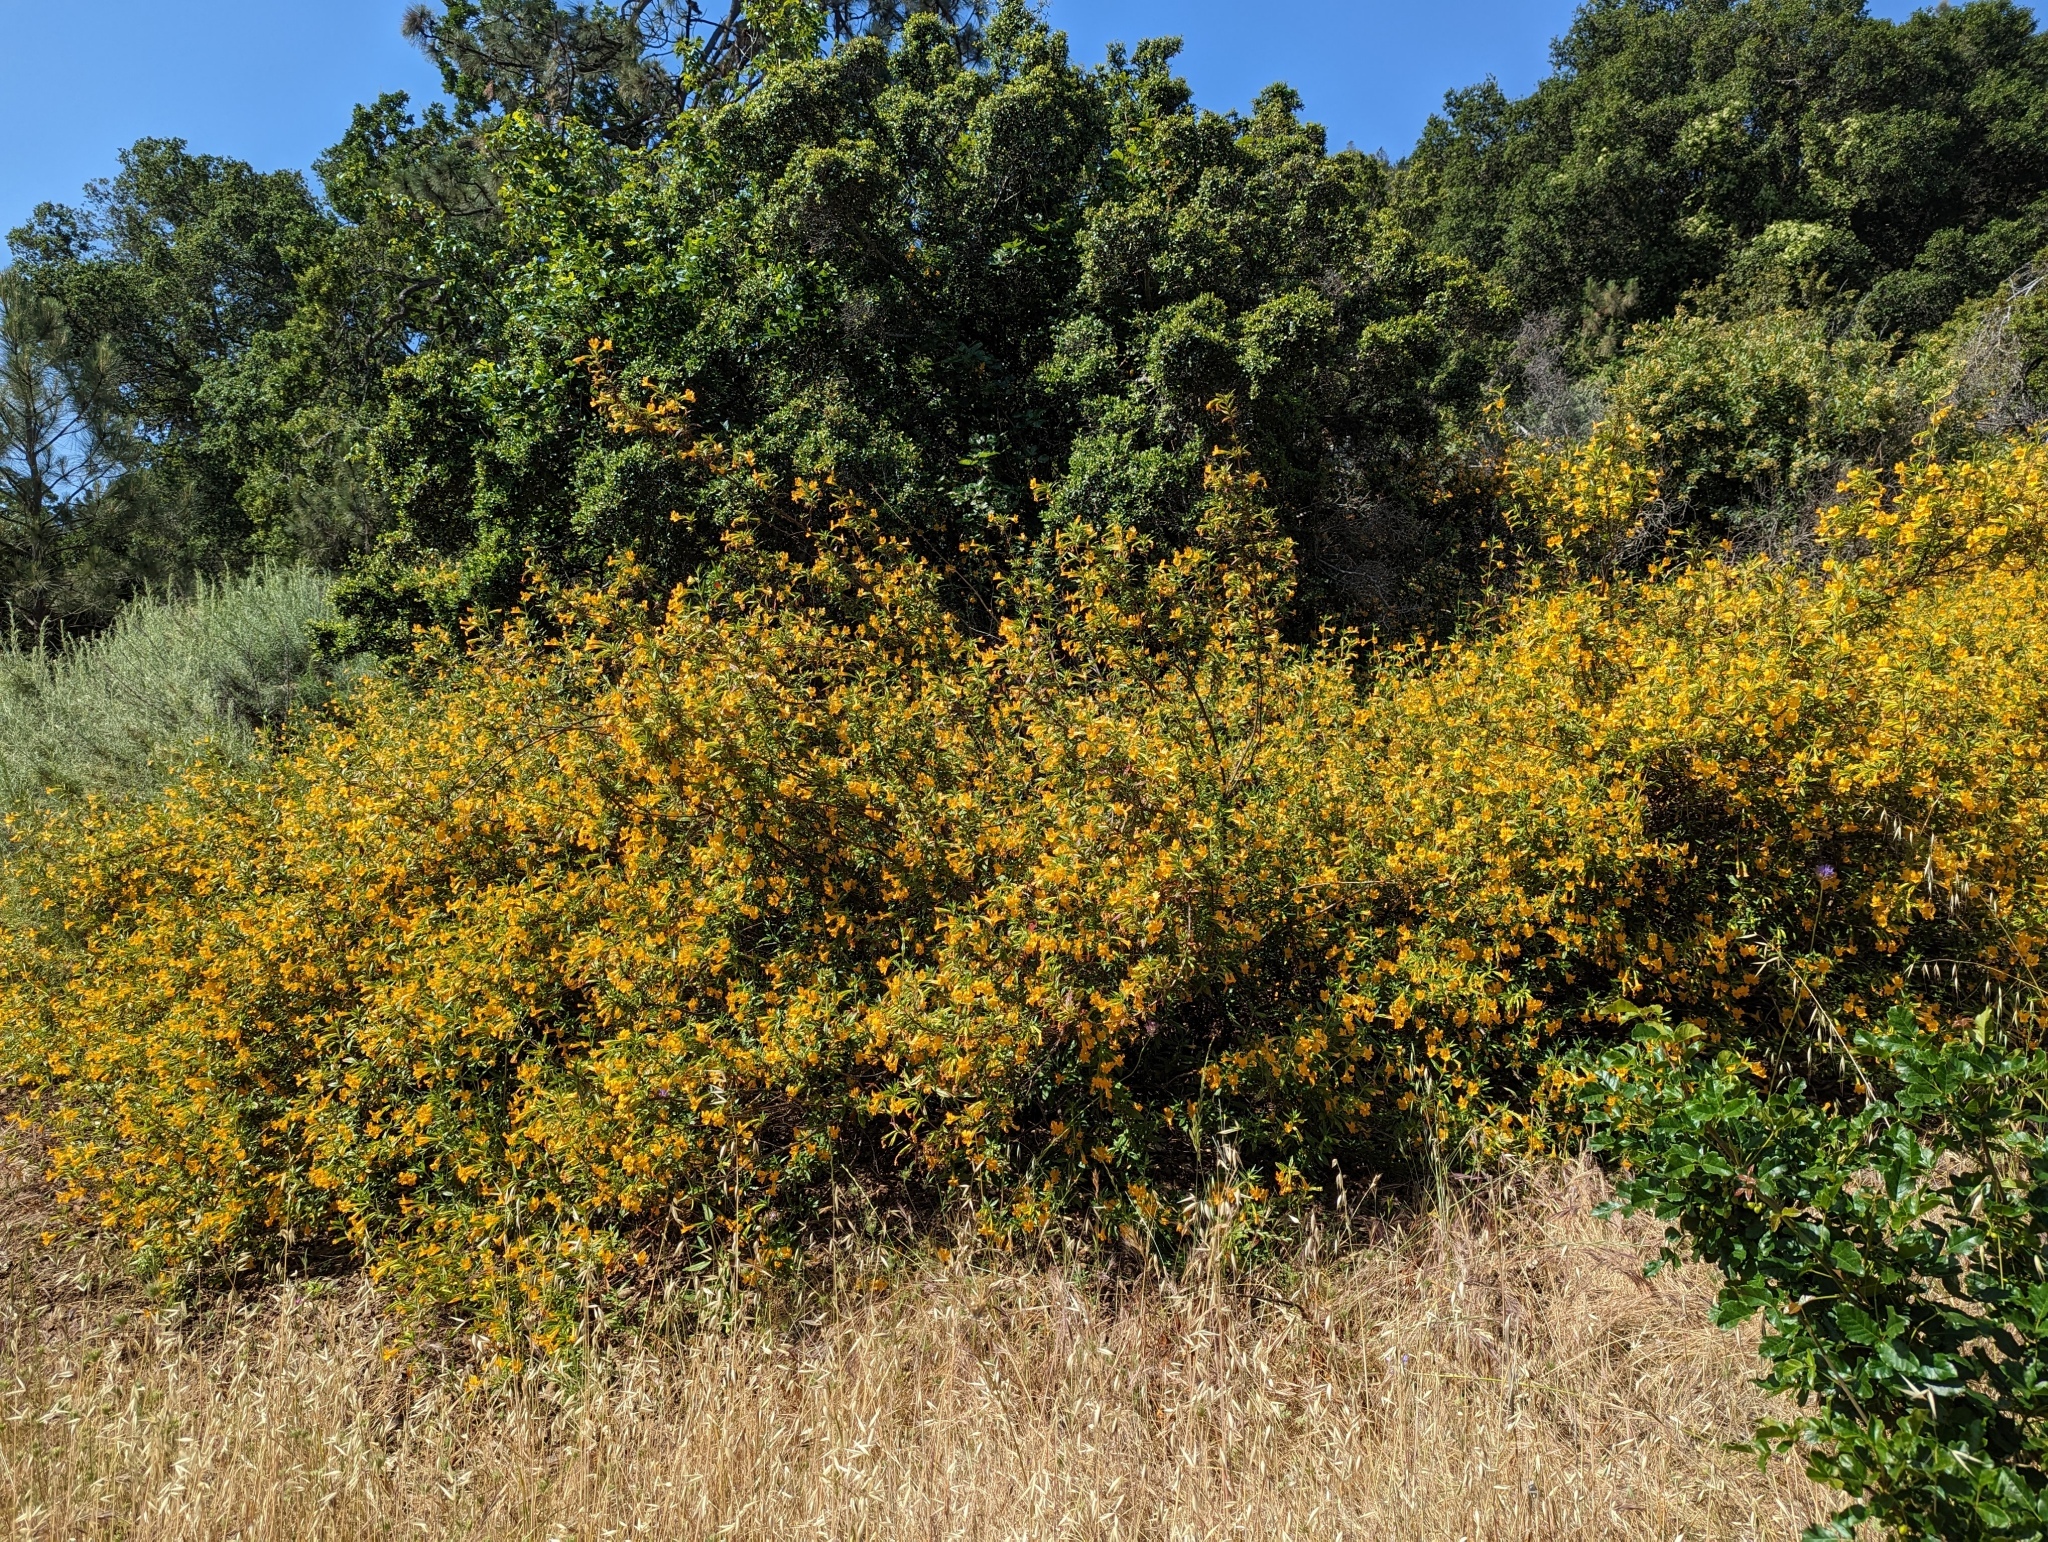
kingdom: Plantae
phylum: Tracheophyta
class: Magnoliopsida
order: Lamiales
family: Phrymaceae
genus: Diplacus
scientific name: Diplacus aurantiacus
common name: Bush monkey-flower
